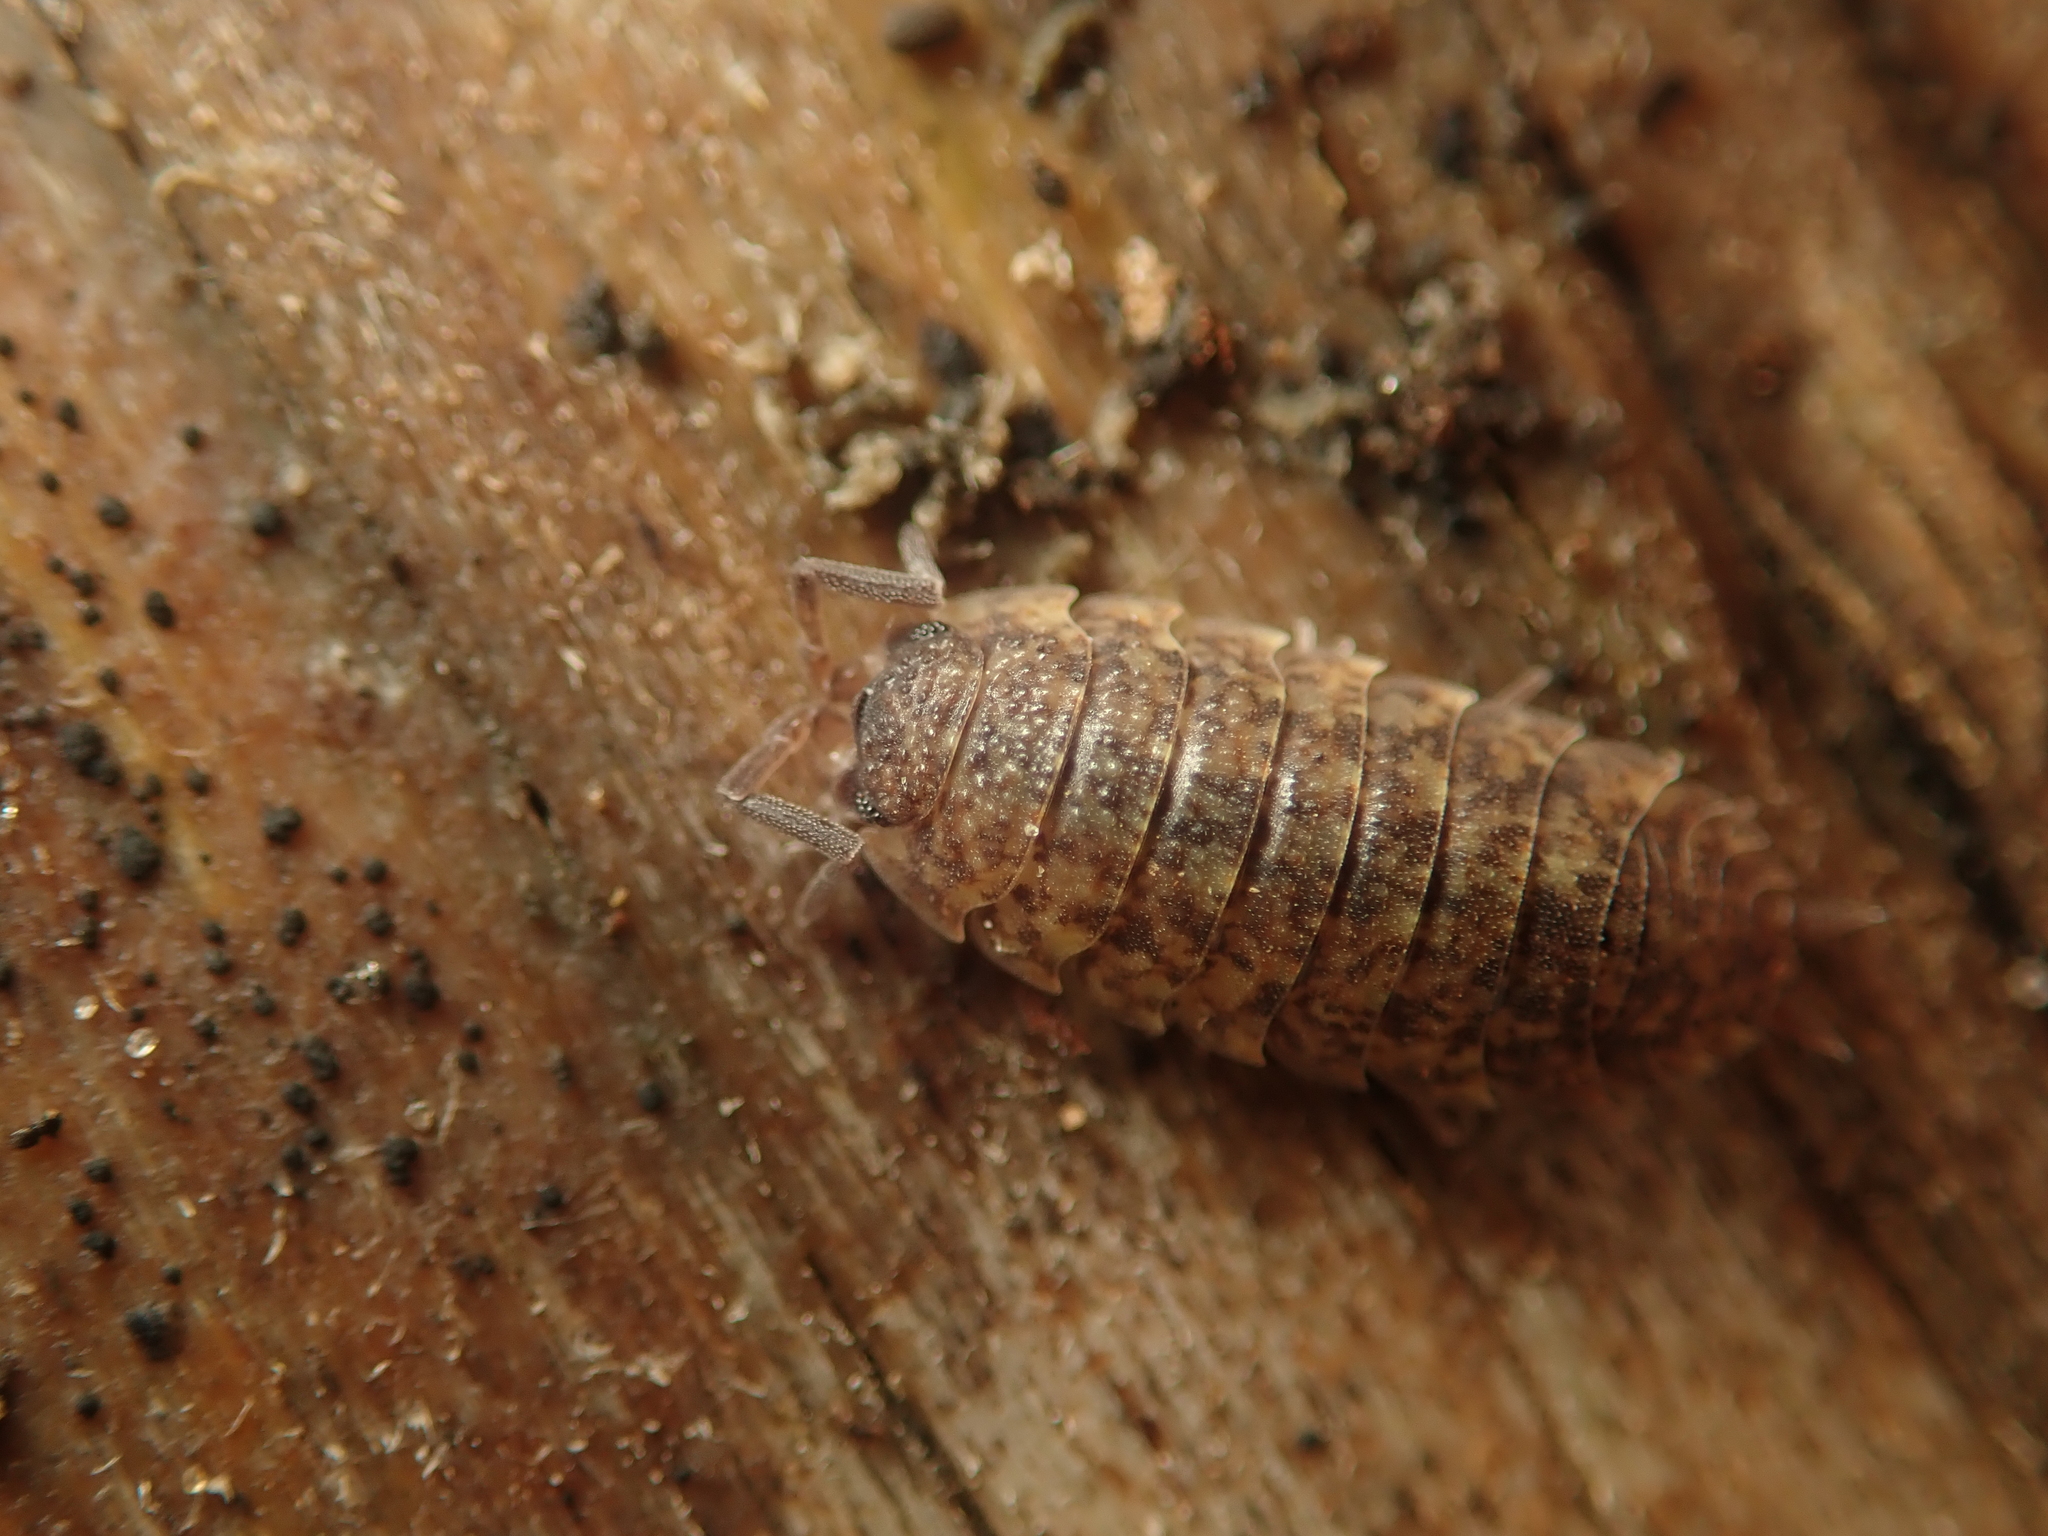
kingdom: Animalia
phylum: Arthropoda
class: Malacostraca
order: Isopoda
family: Porcellionidae
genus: Porcellio
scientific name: Porcellio scaber
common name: Common rough woodlouse
